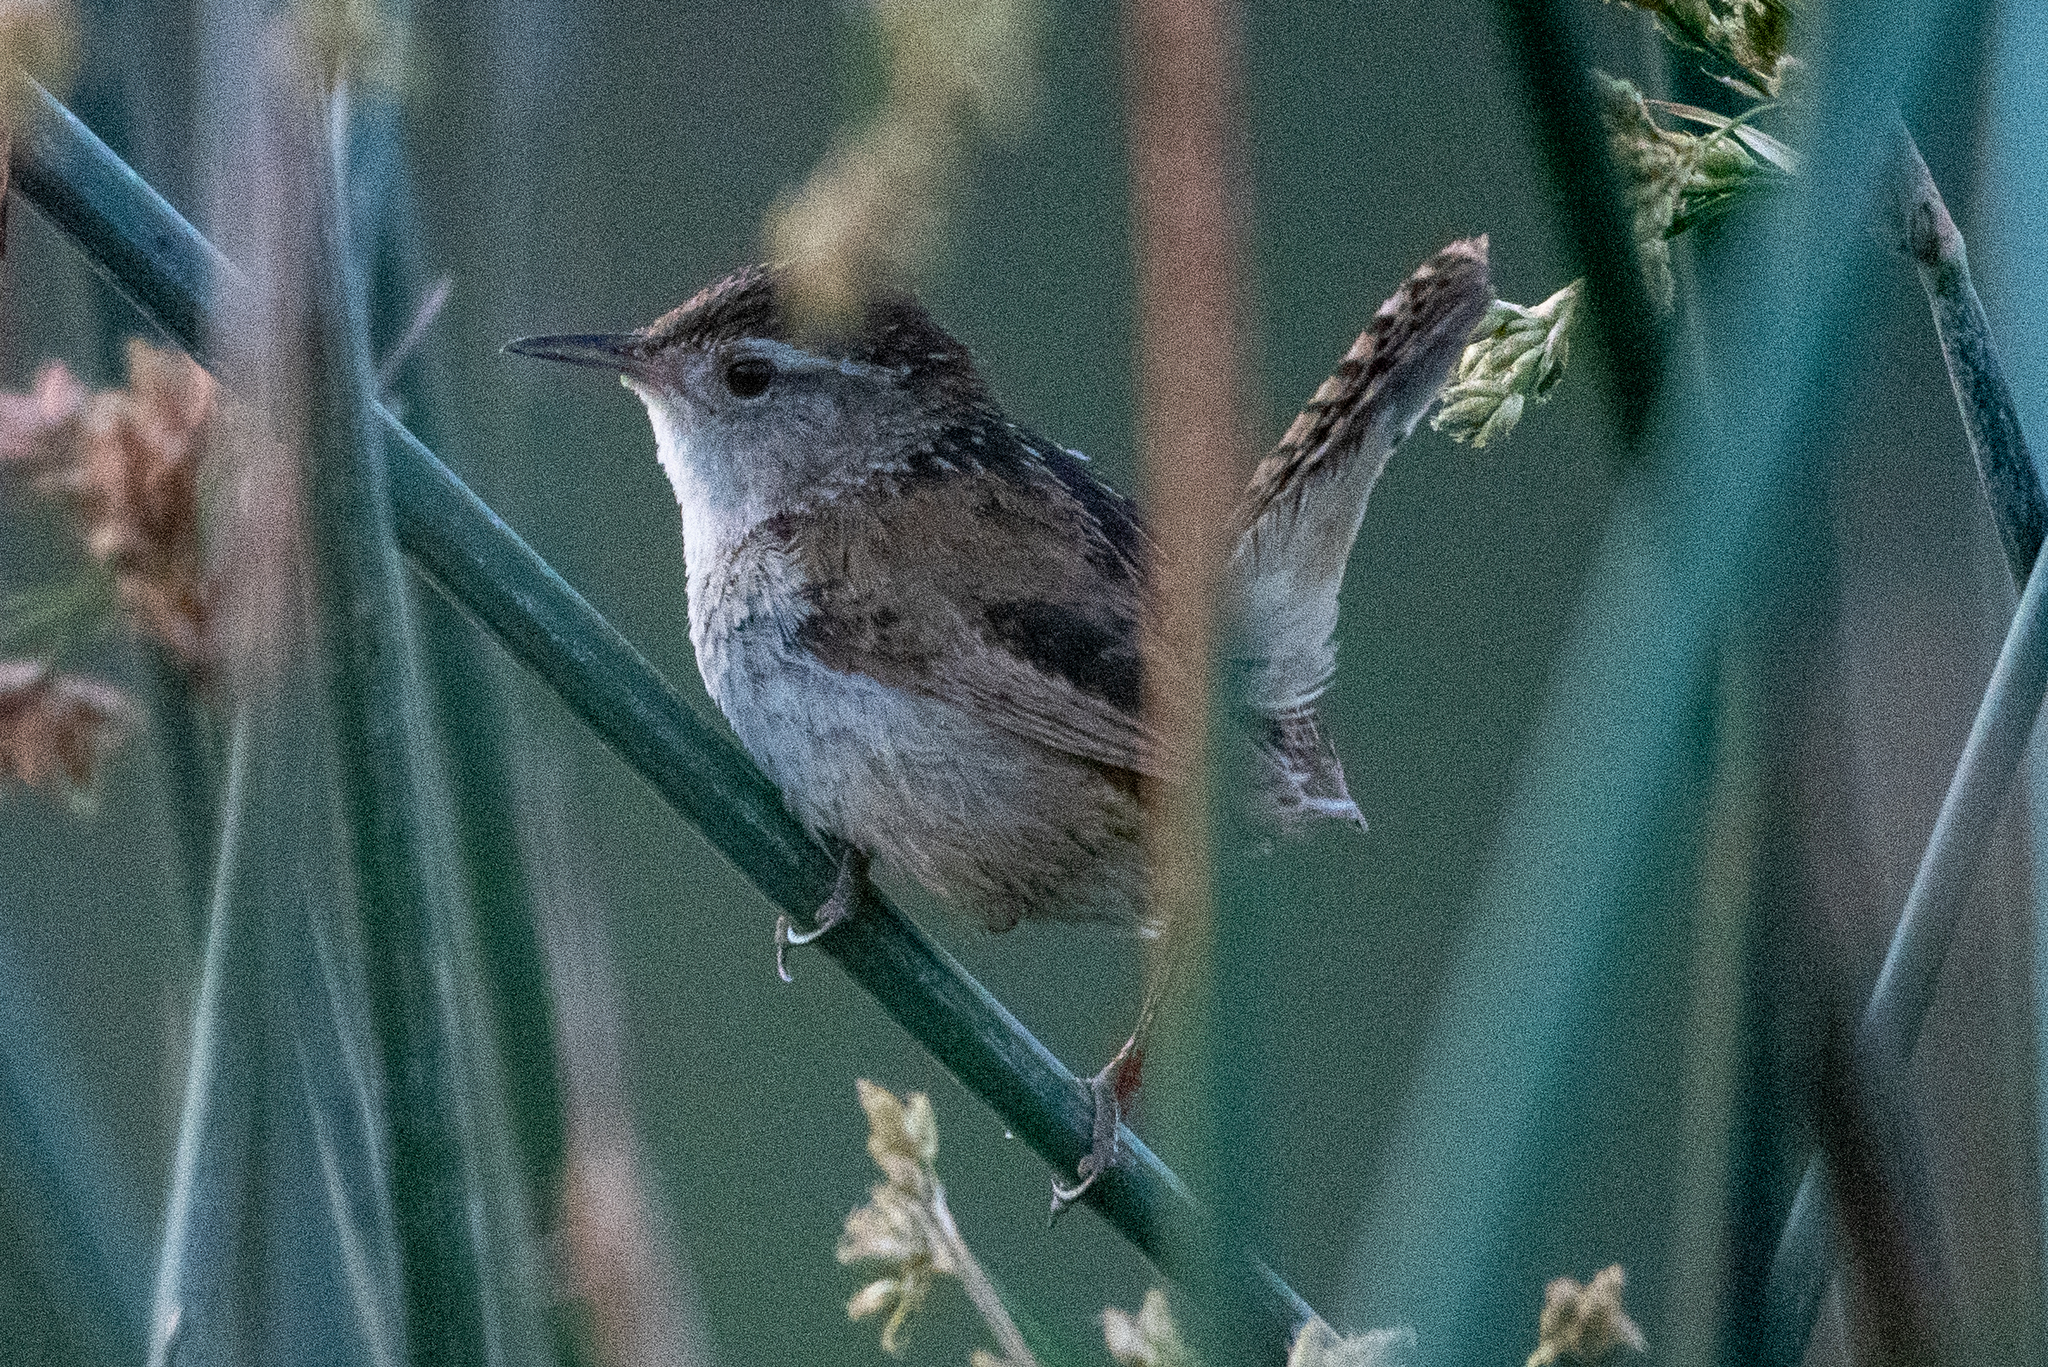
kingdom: Animalia
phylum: Chordata
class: Aves
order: Passeriformes
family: Troglodytidae
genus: Cistothorus
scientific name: Cistothorus palustris
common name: Marsh wren
